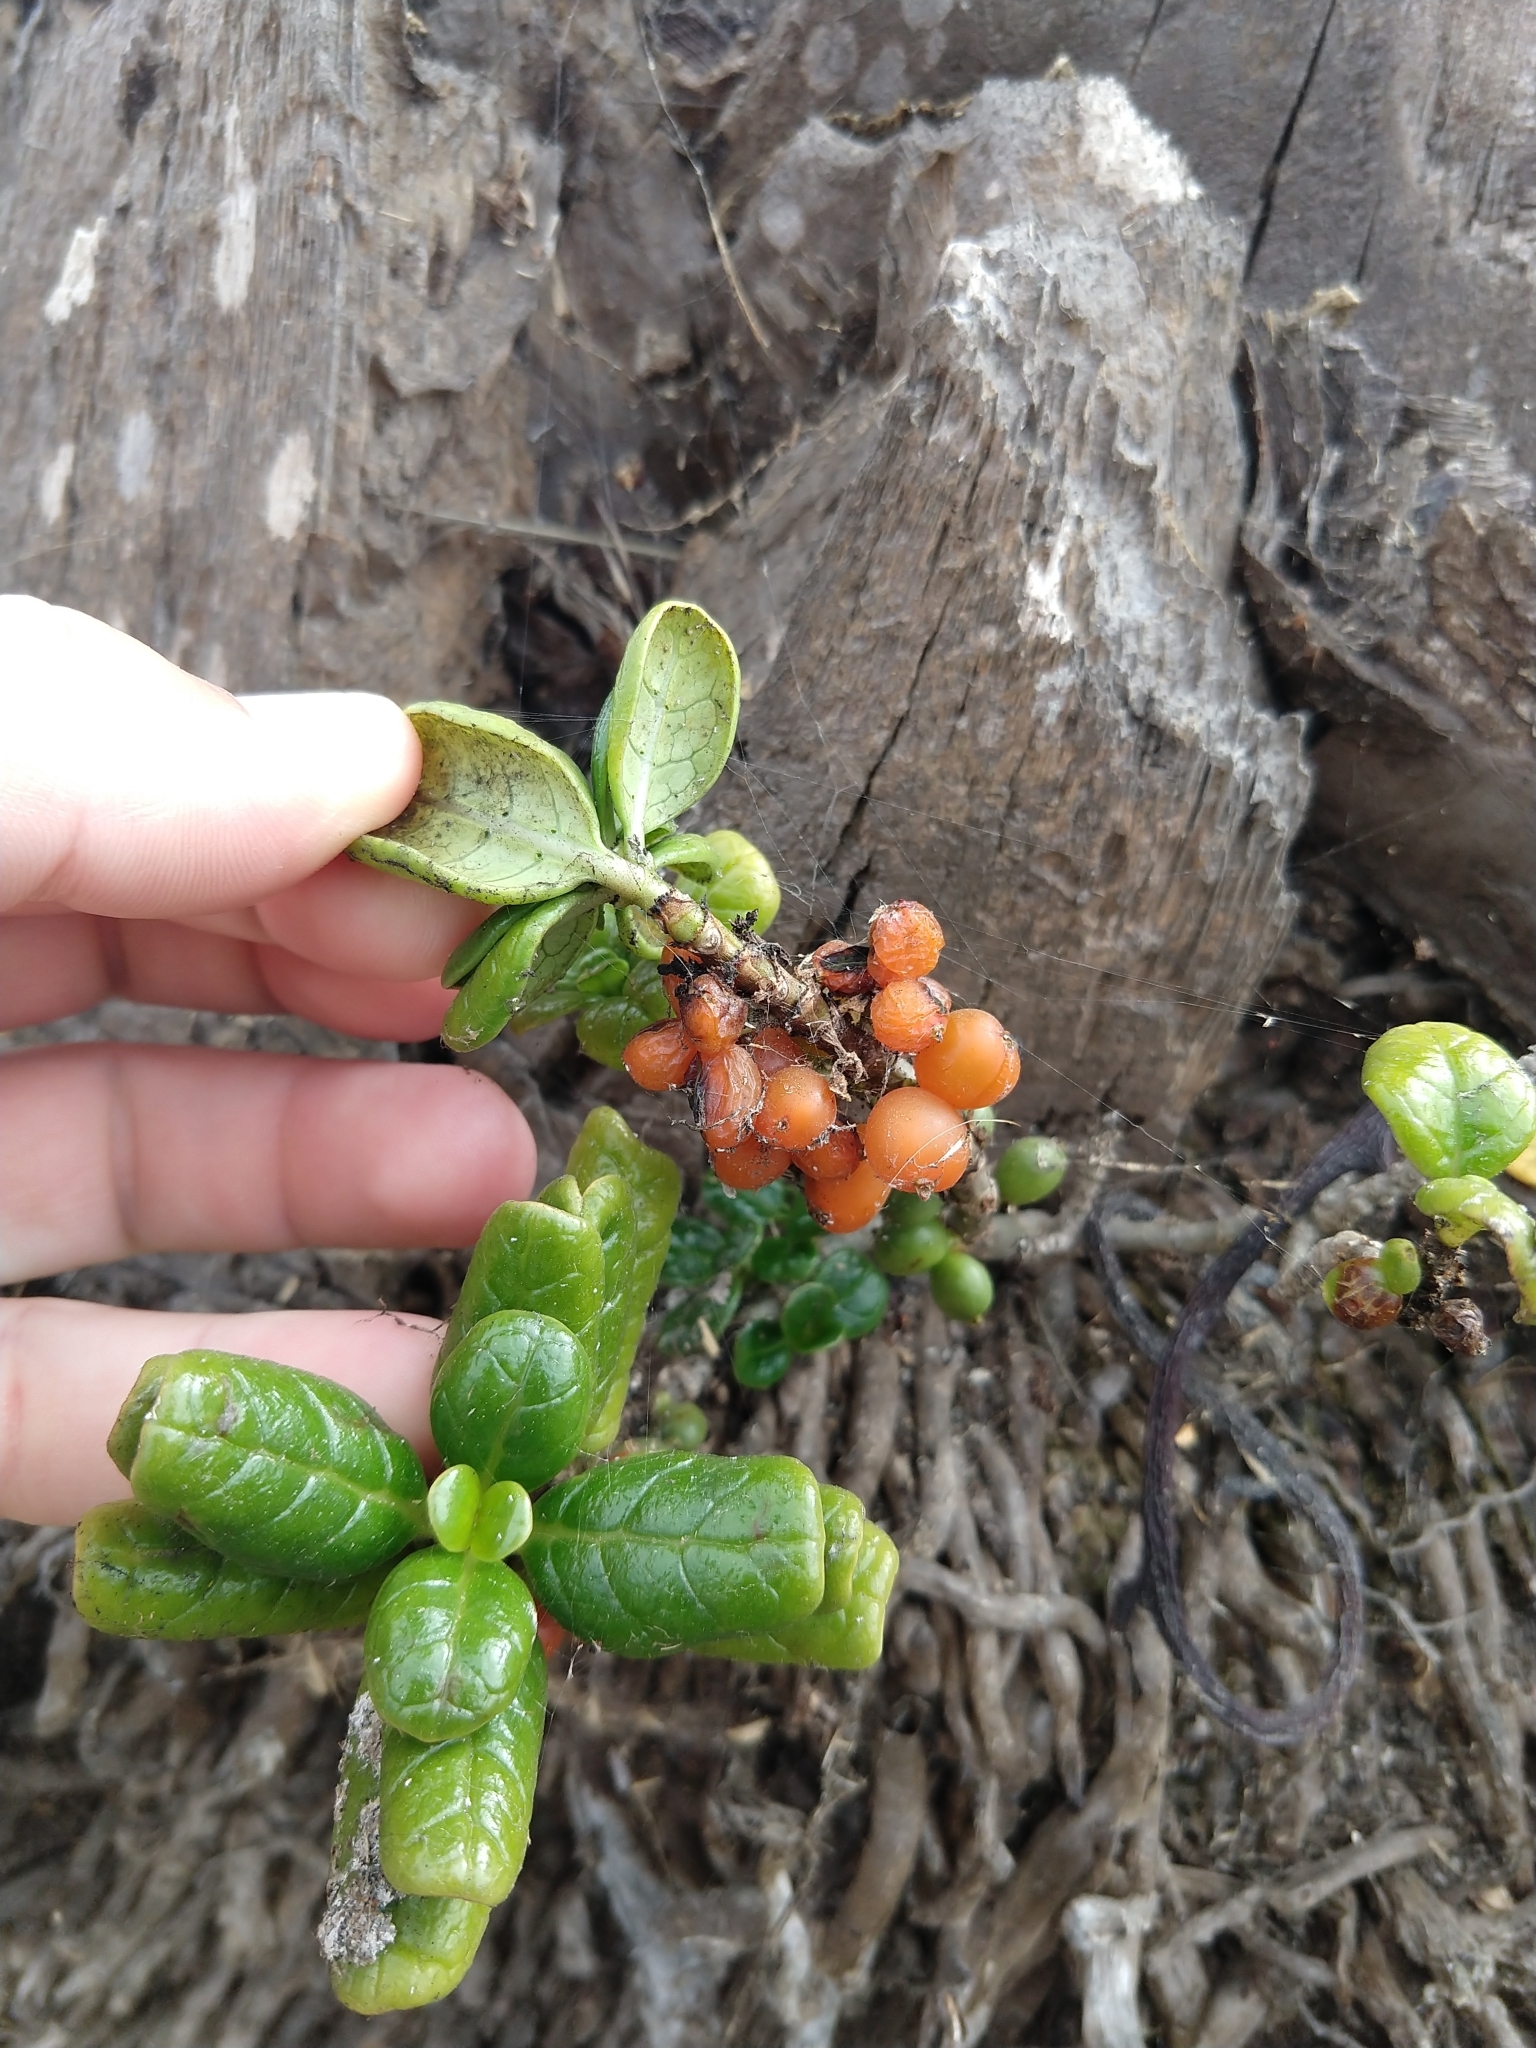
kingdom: Plantae
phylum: Tracheophyta
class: Magnoliopsida
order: Gentianales
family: Rubiaceae
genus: Coprosma
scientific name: Coprosma repens
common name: Tree bedstraw
